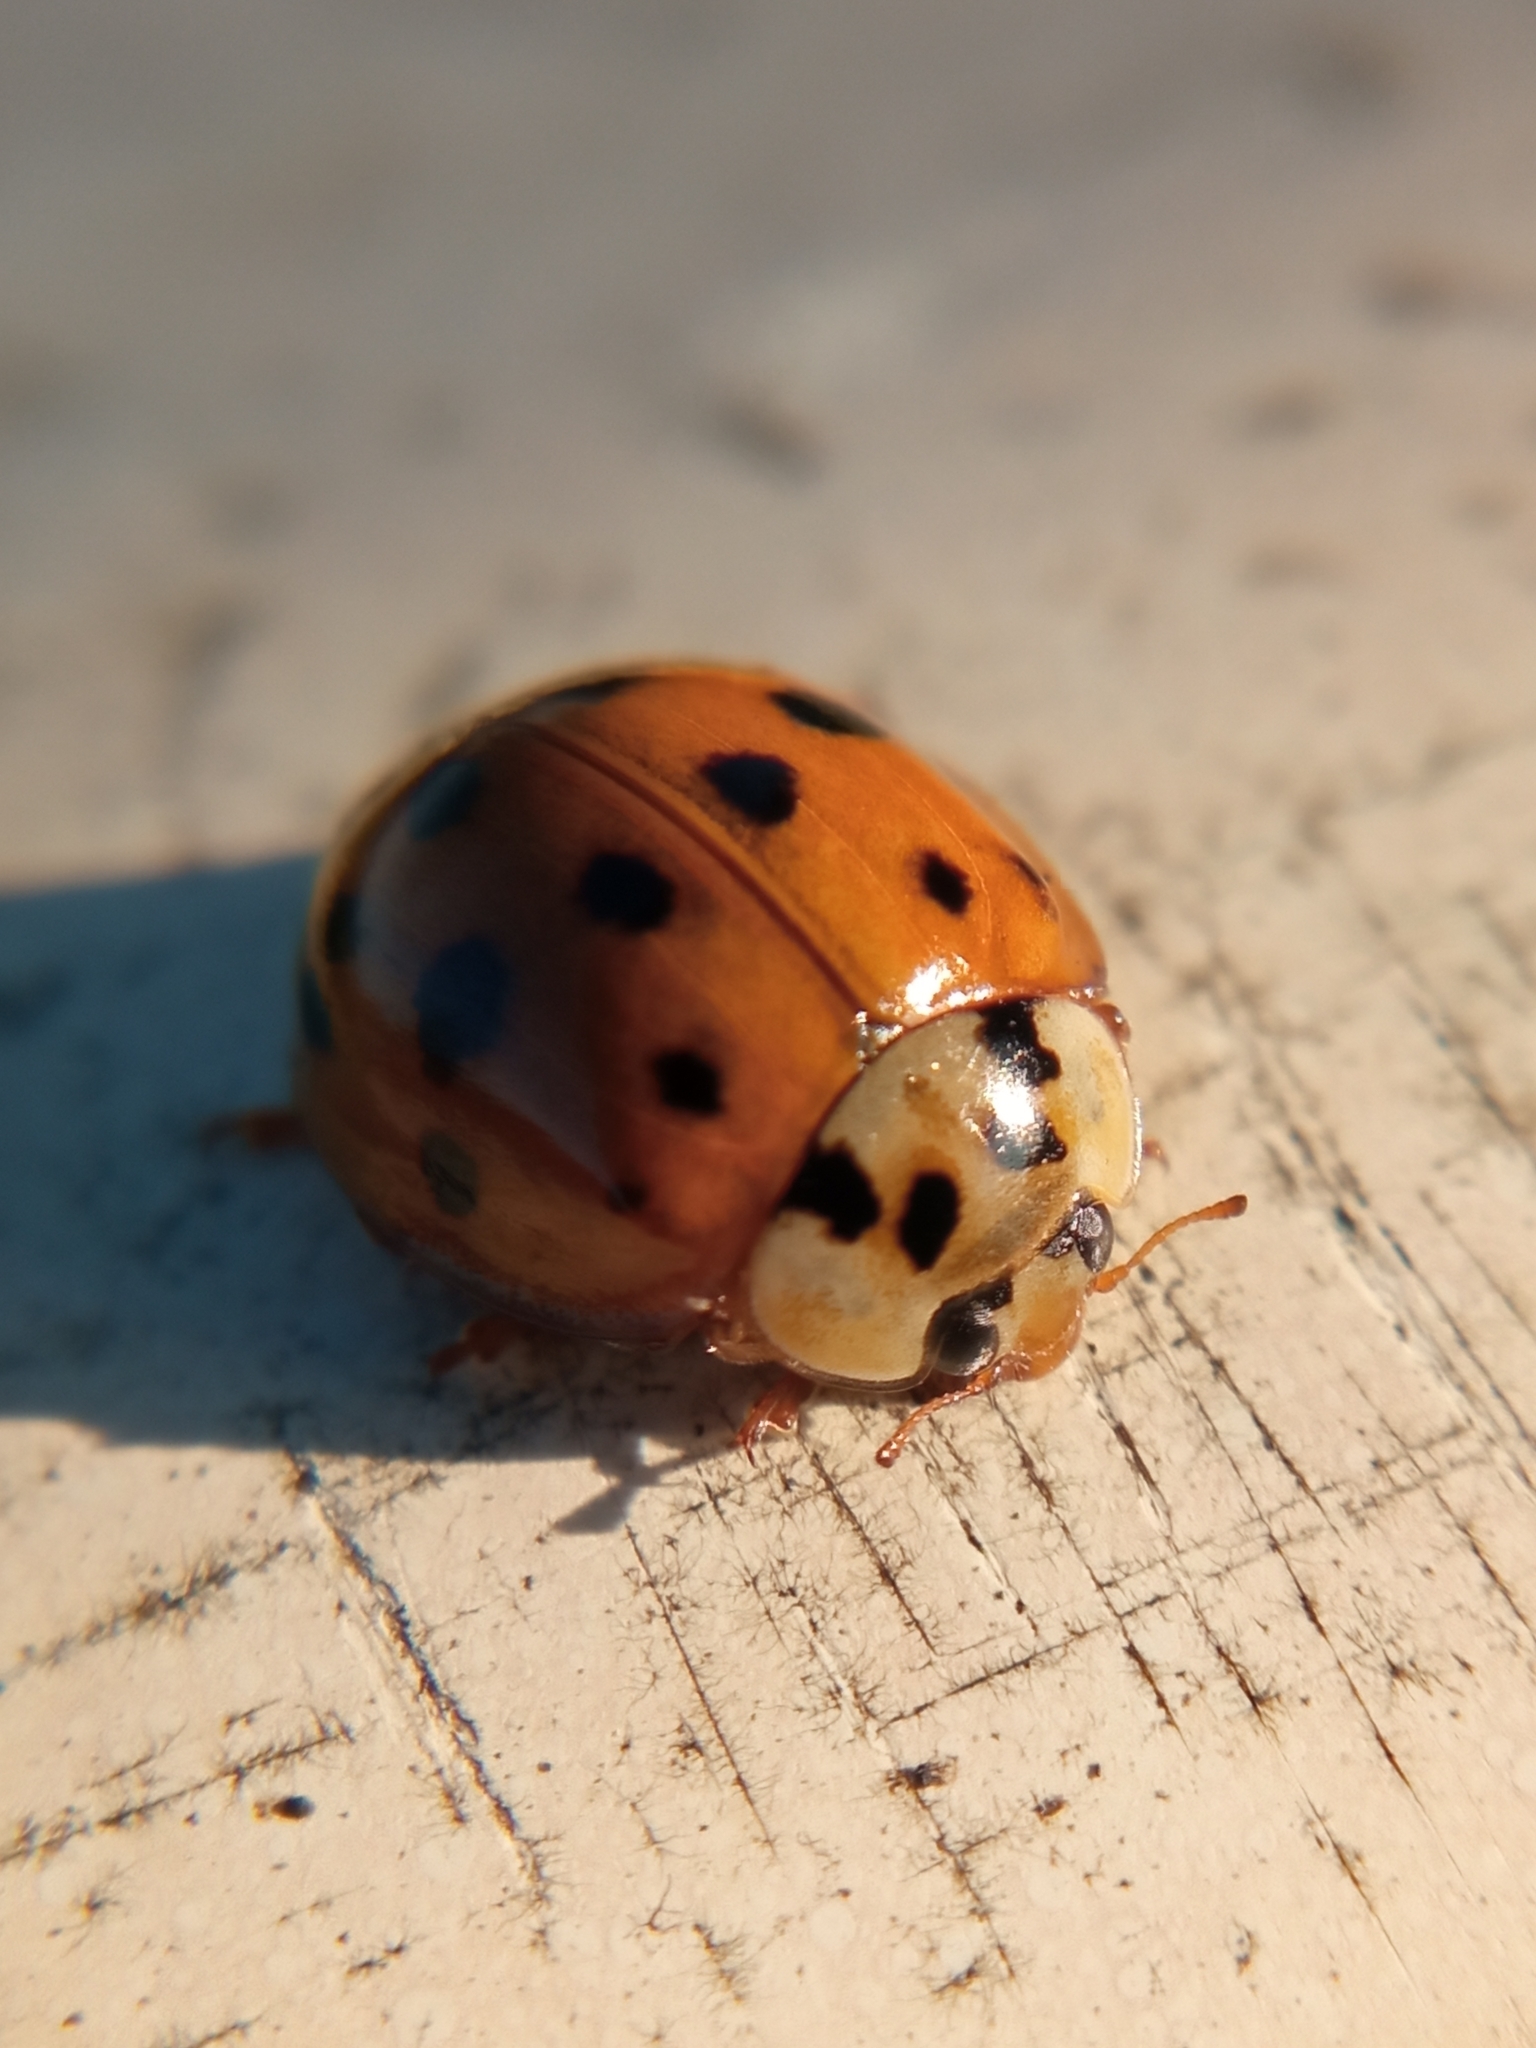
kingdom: Animalia
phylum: Arthropoda
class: Insecta
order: Coleoptera
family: Coccinellidae
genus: Harmonia
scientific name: Harmonia axyridis
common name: Harlequin ladybird
